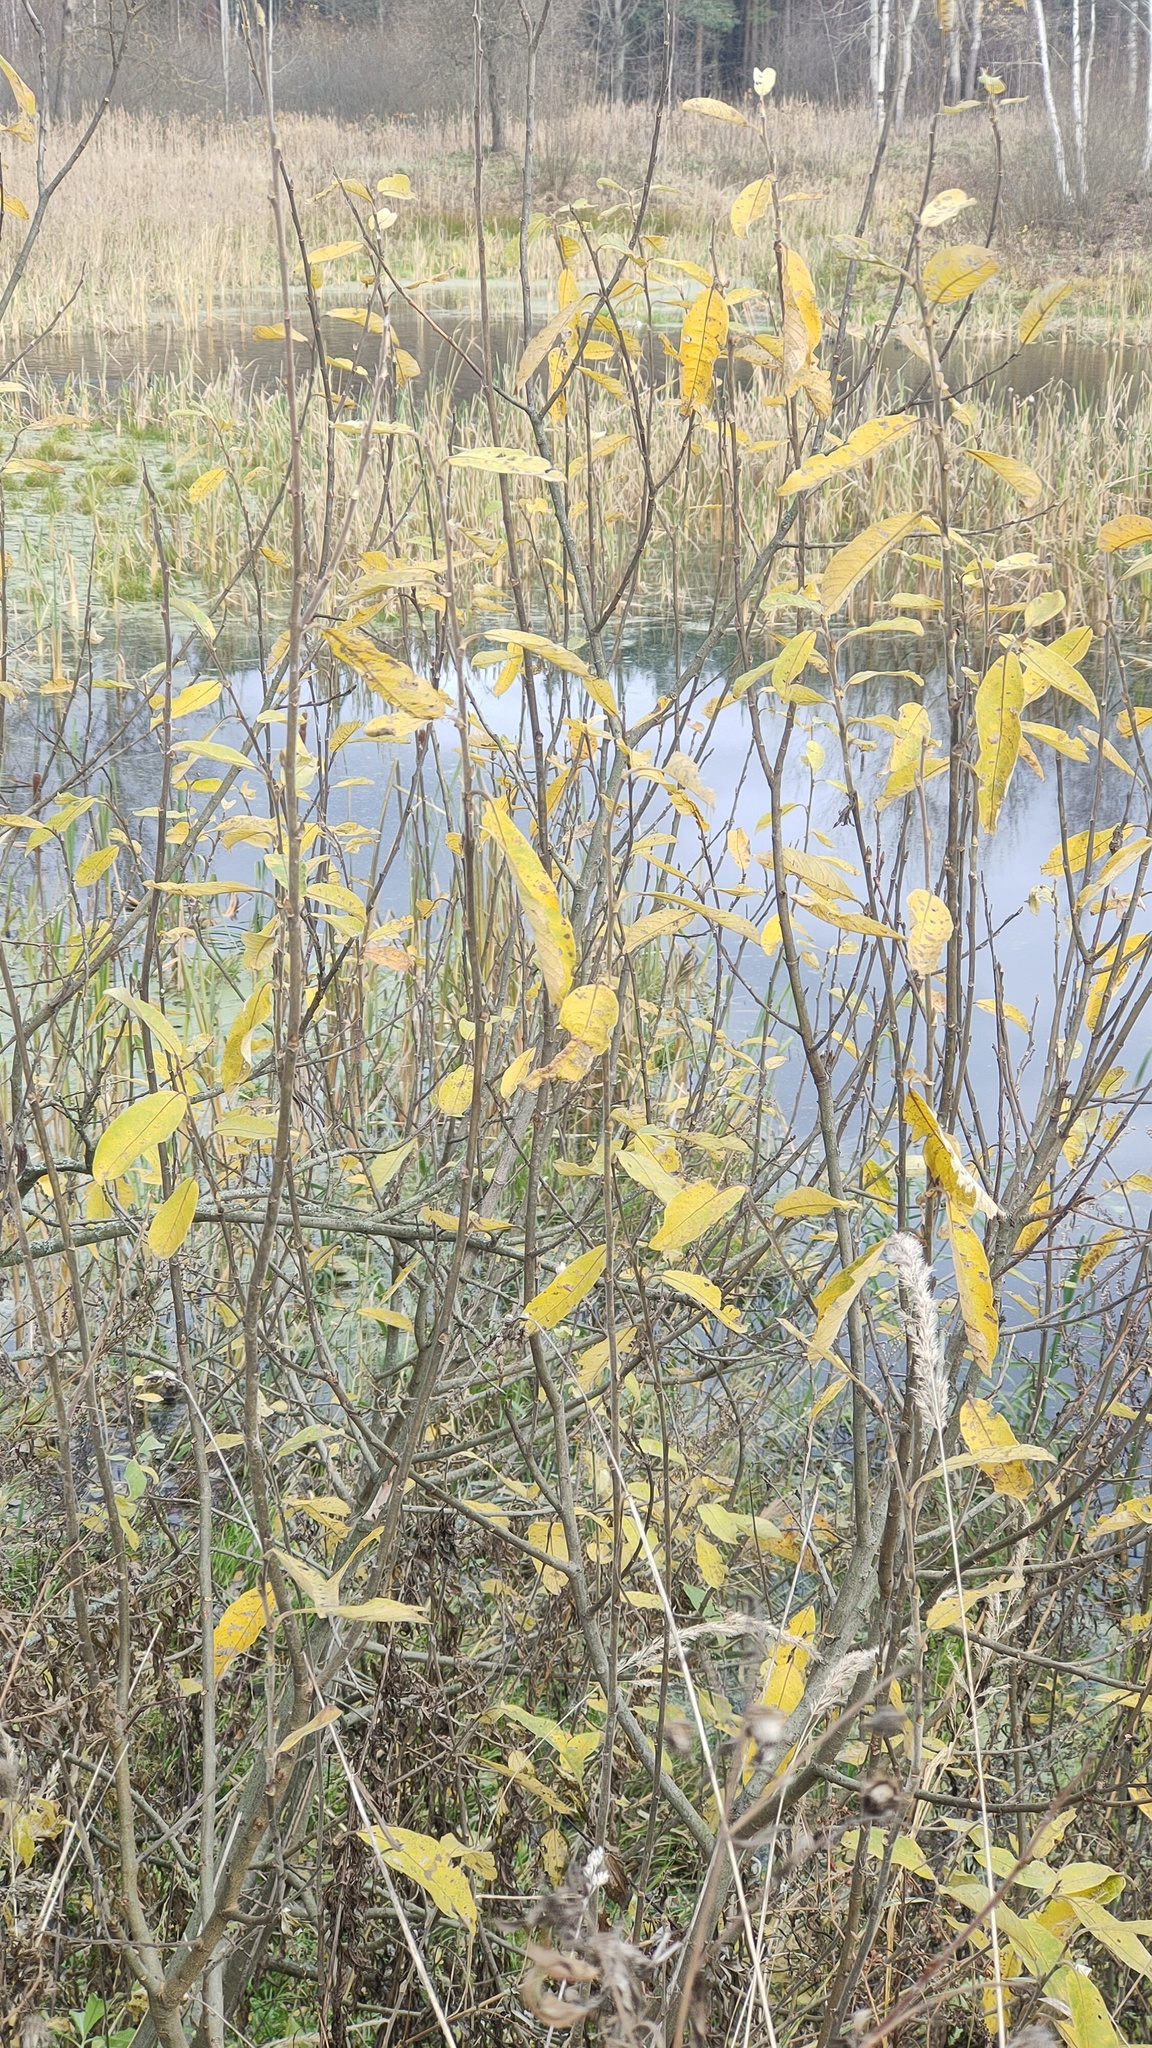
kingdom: Plantae
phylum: Tracheophyta
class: Magnoliopsida
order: Malpighiales
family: Salicaceae
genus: Salix
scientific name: Salix cinerea
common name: Common sallow
